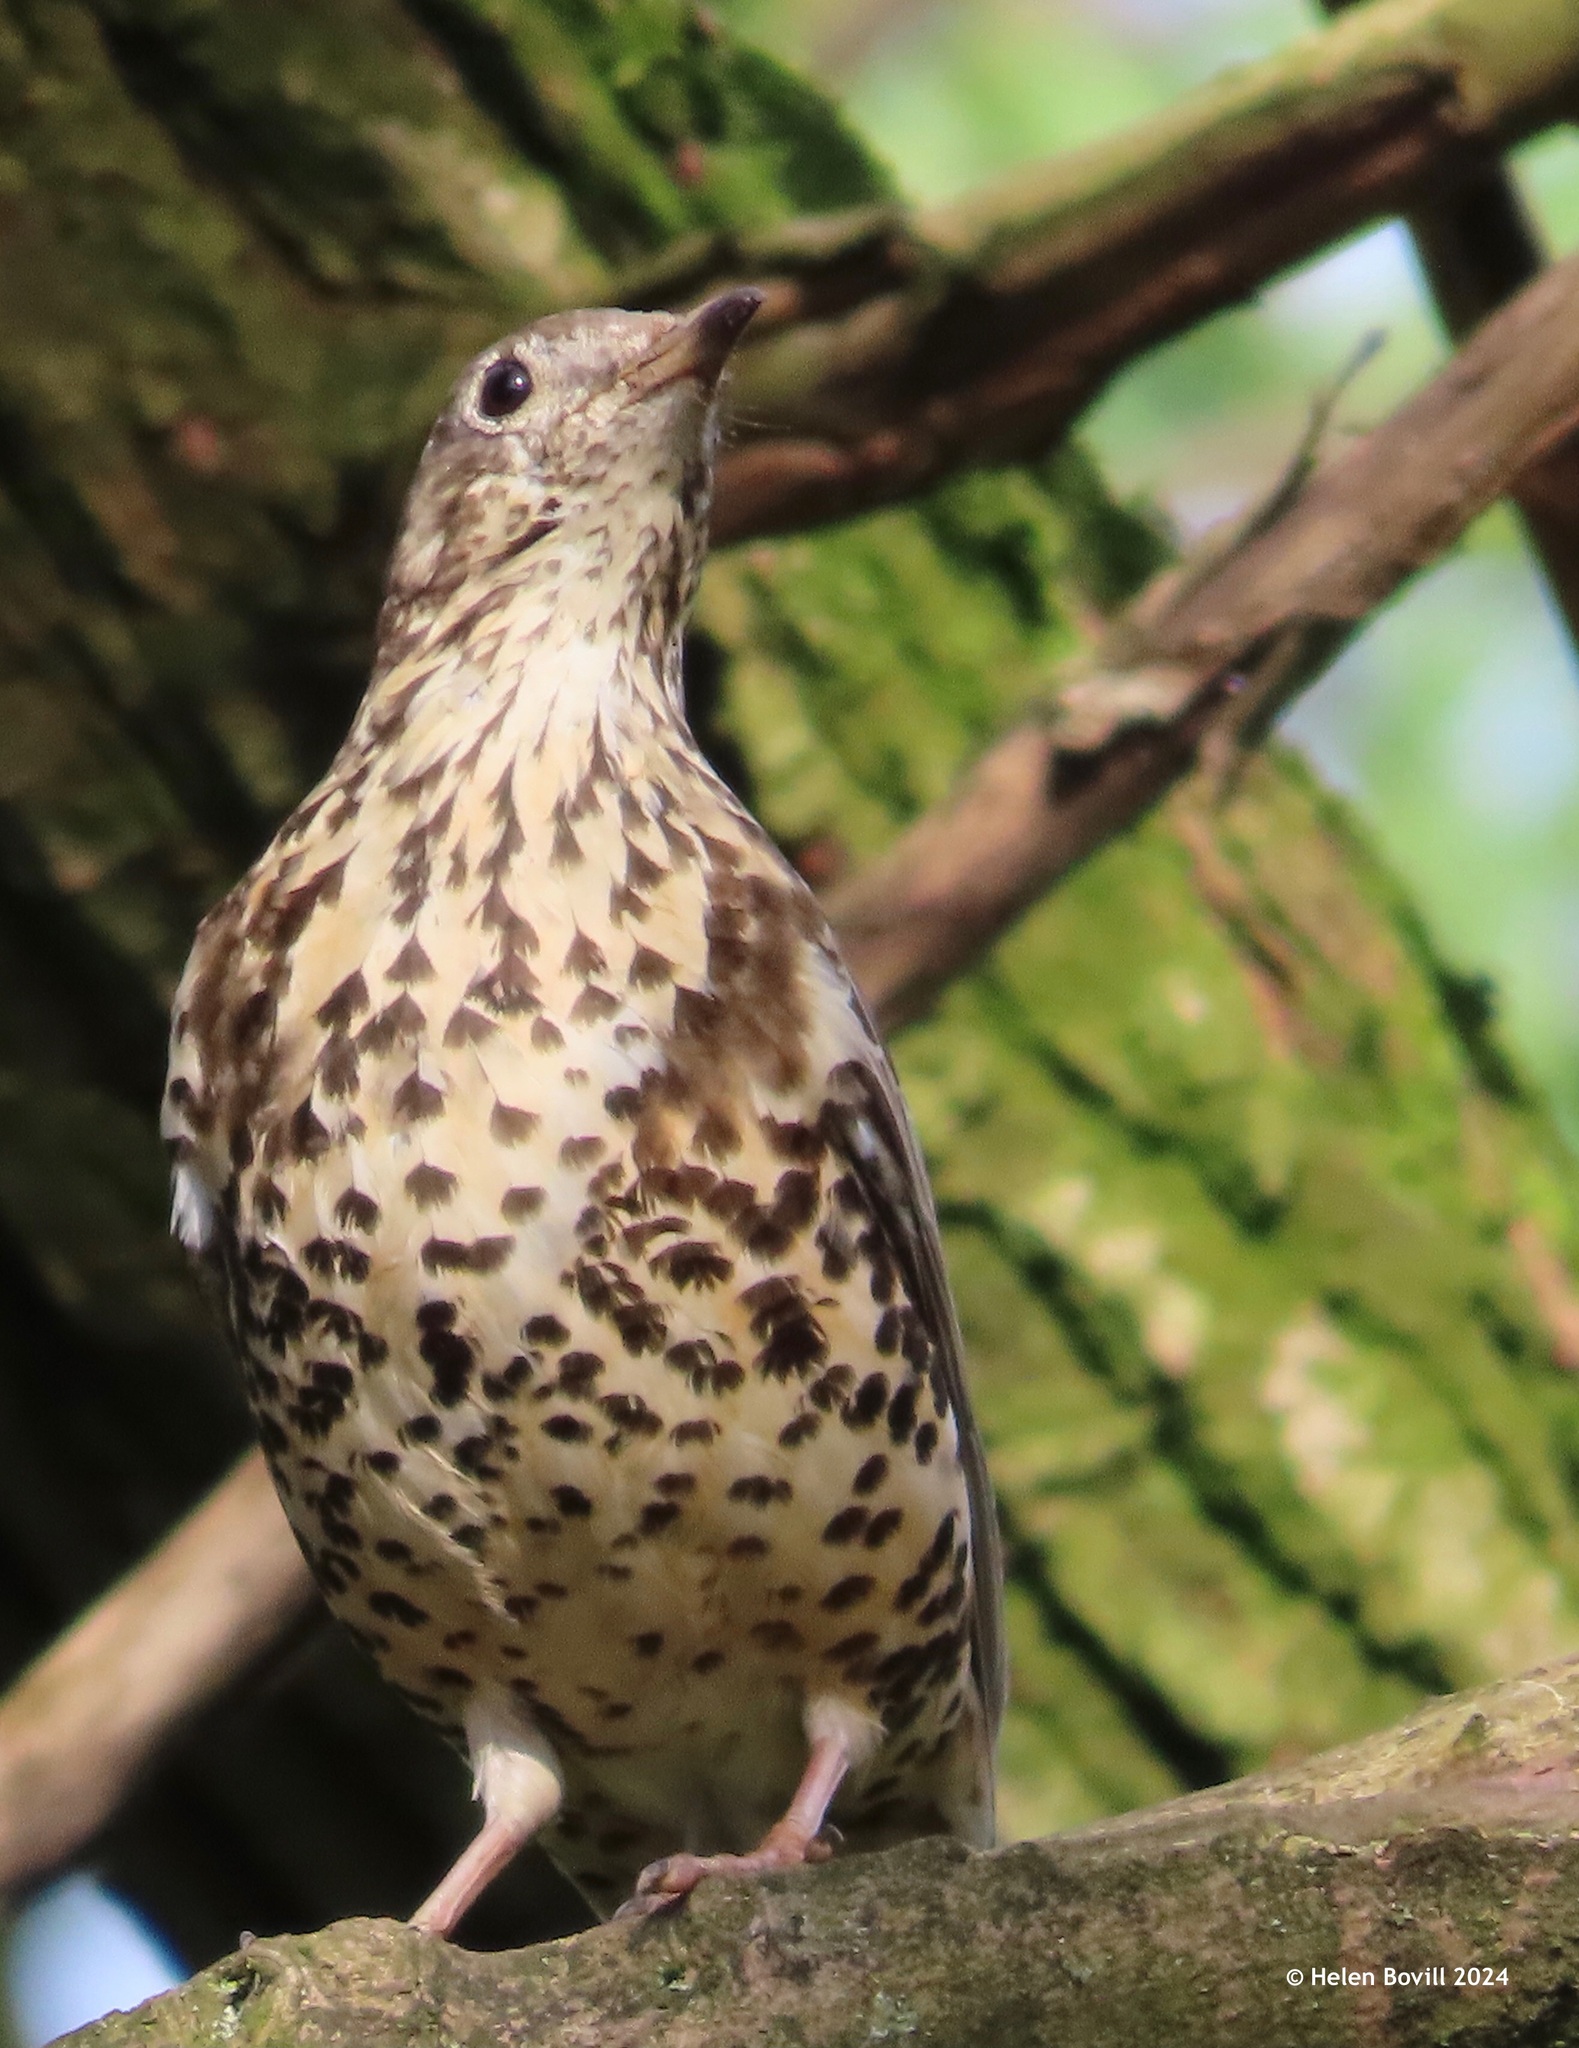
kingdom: Animalia
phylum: Chordata
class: Aves
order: Passeriformes
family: Turdidae
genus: Turdus
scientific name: Turdus viscivorus
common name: Mistle thrush
